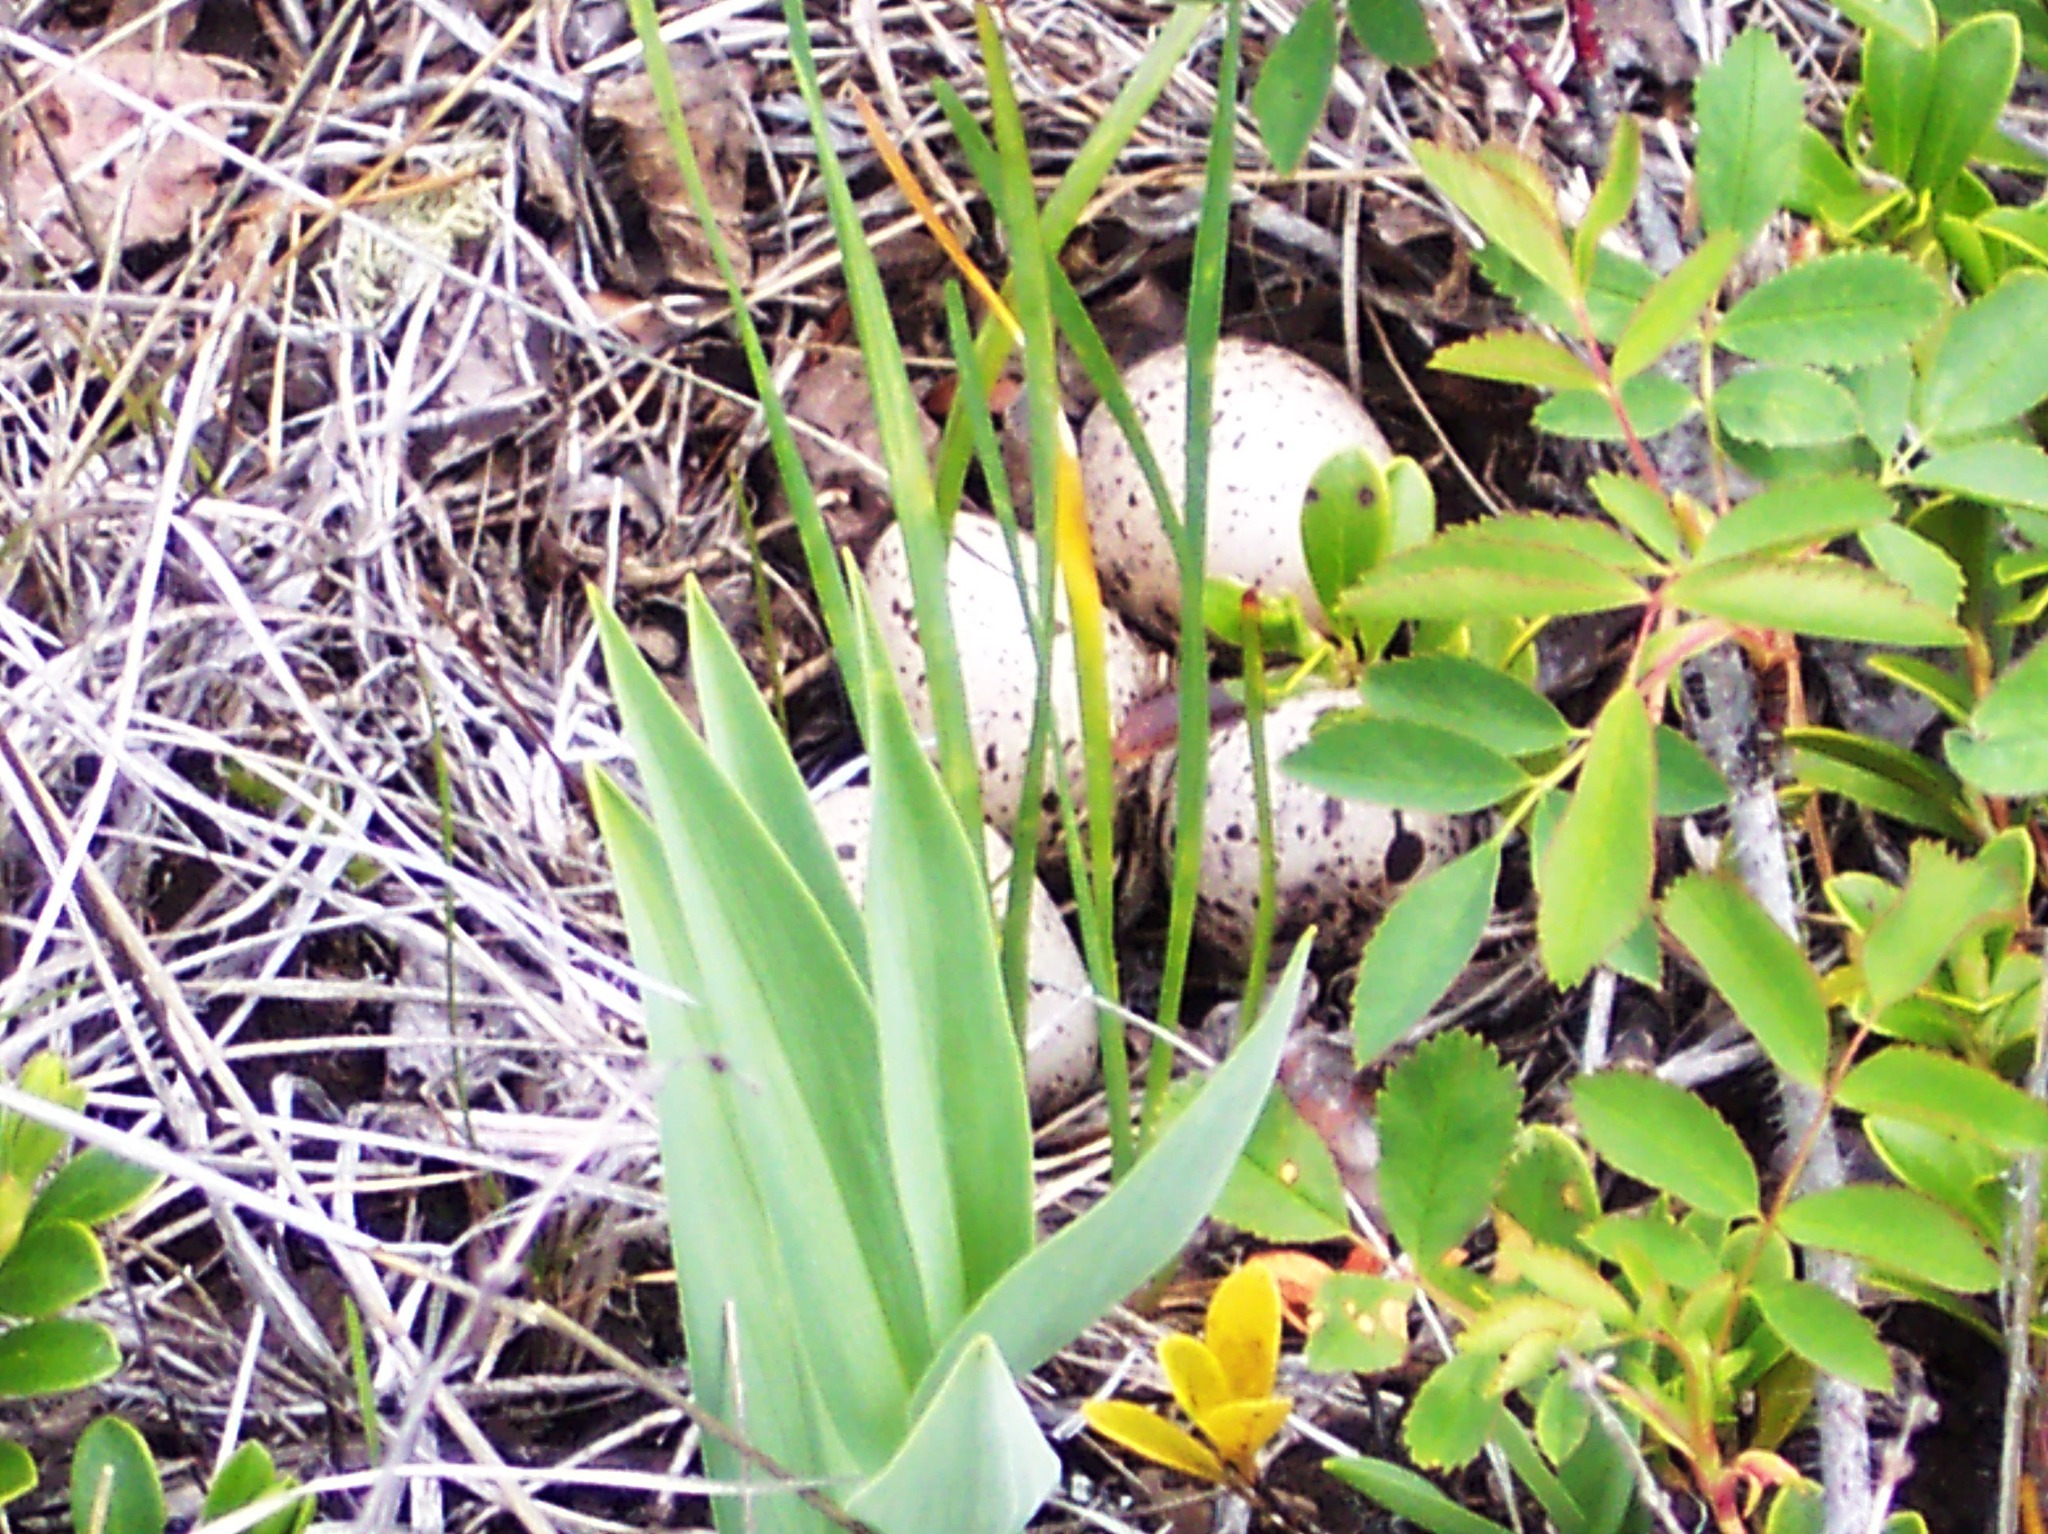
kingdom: Animalia
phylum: Chordata
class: Aves
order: Passeriformes
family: Turdidae
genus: Catharus
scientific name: Catharus guttatus
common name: Hermit thrush
